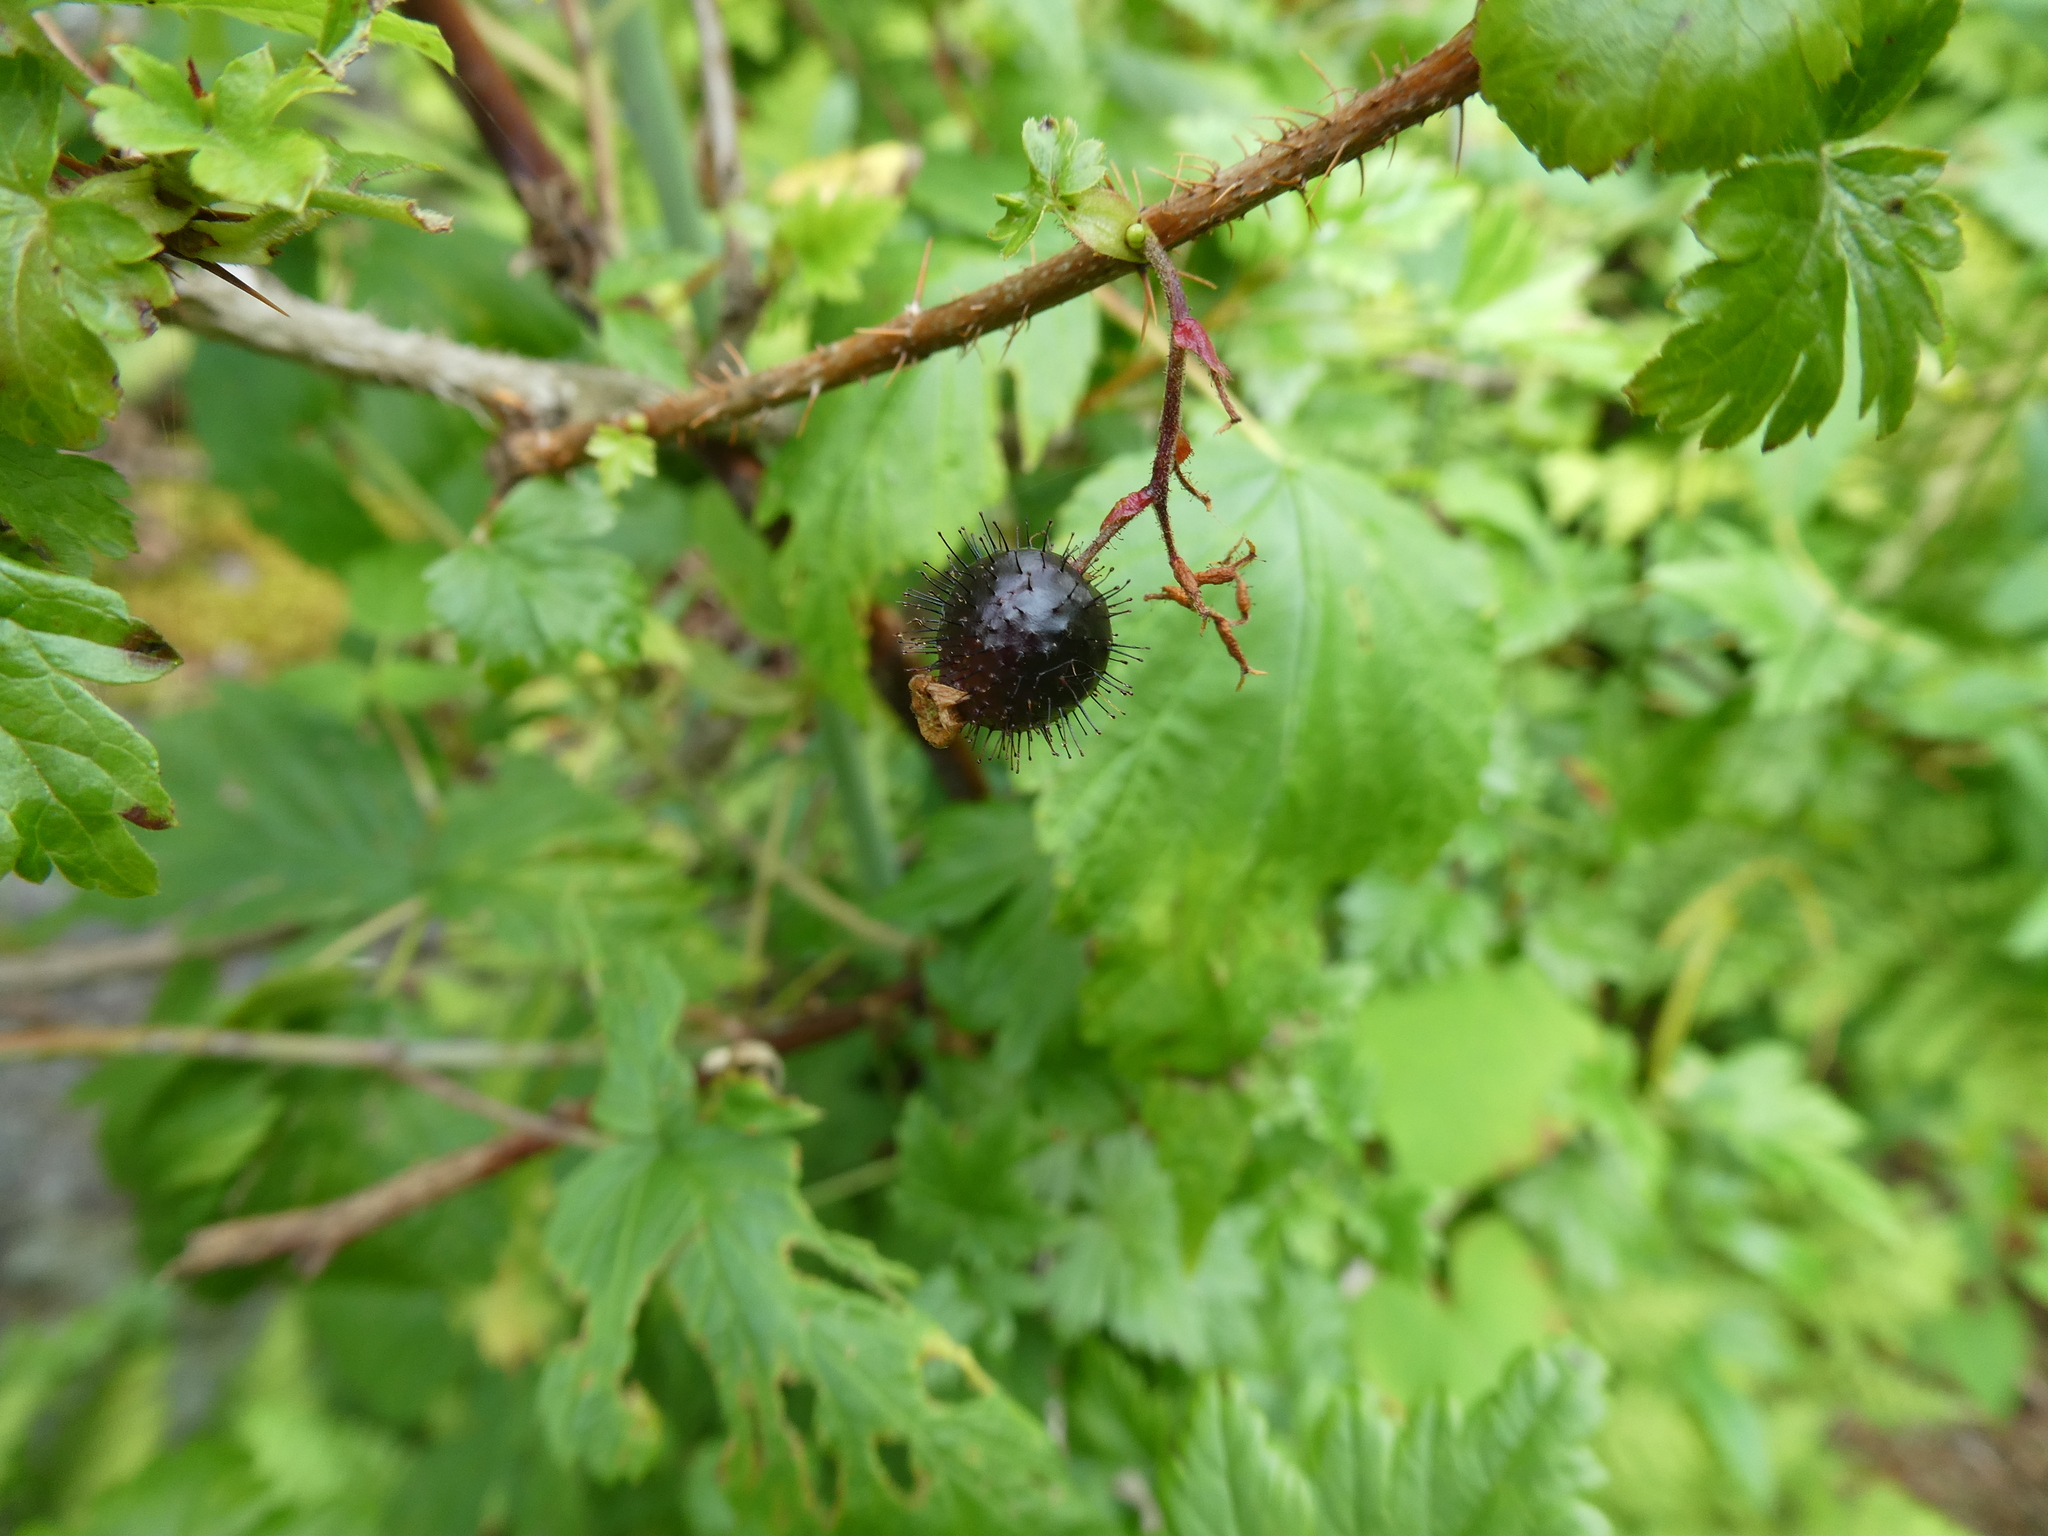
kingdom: Plantae
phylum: Tracheophyta
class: Magnoliopsida
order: Saxifragales
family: Grossulariaceae
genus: Ribes
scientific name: Ribes lacustre
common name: Black gooseberry
